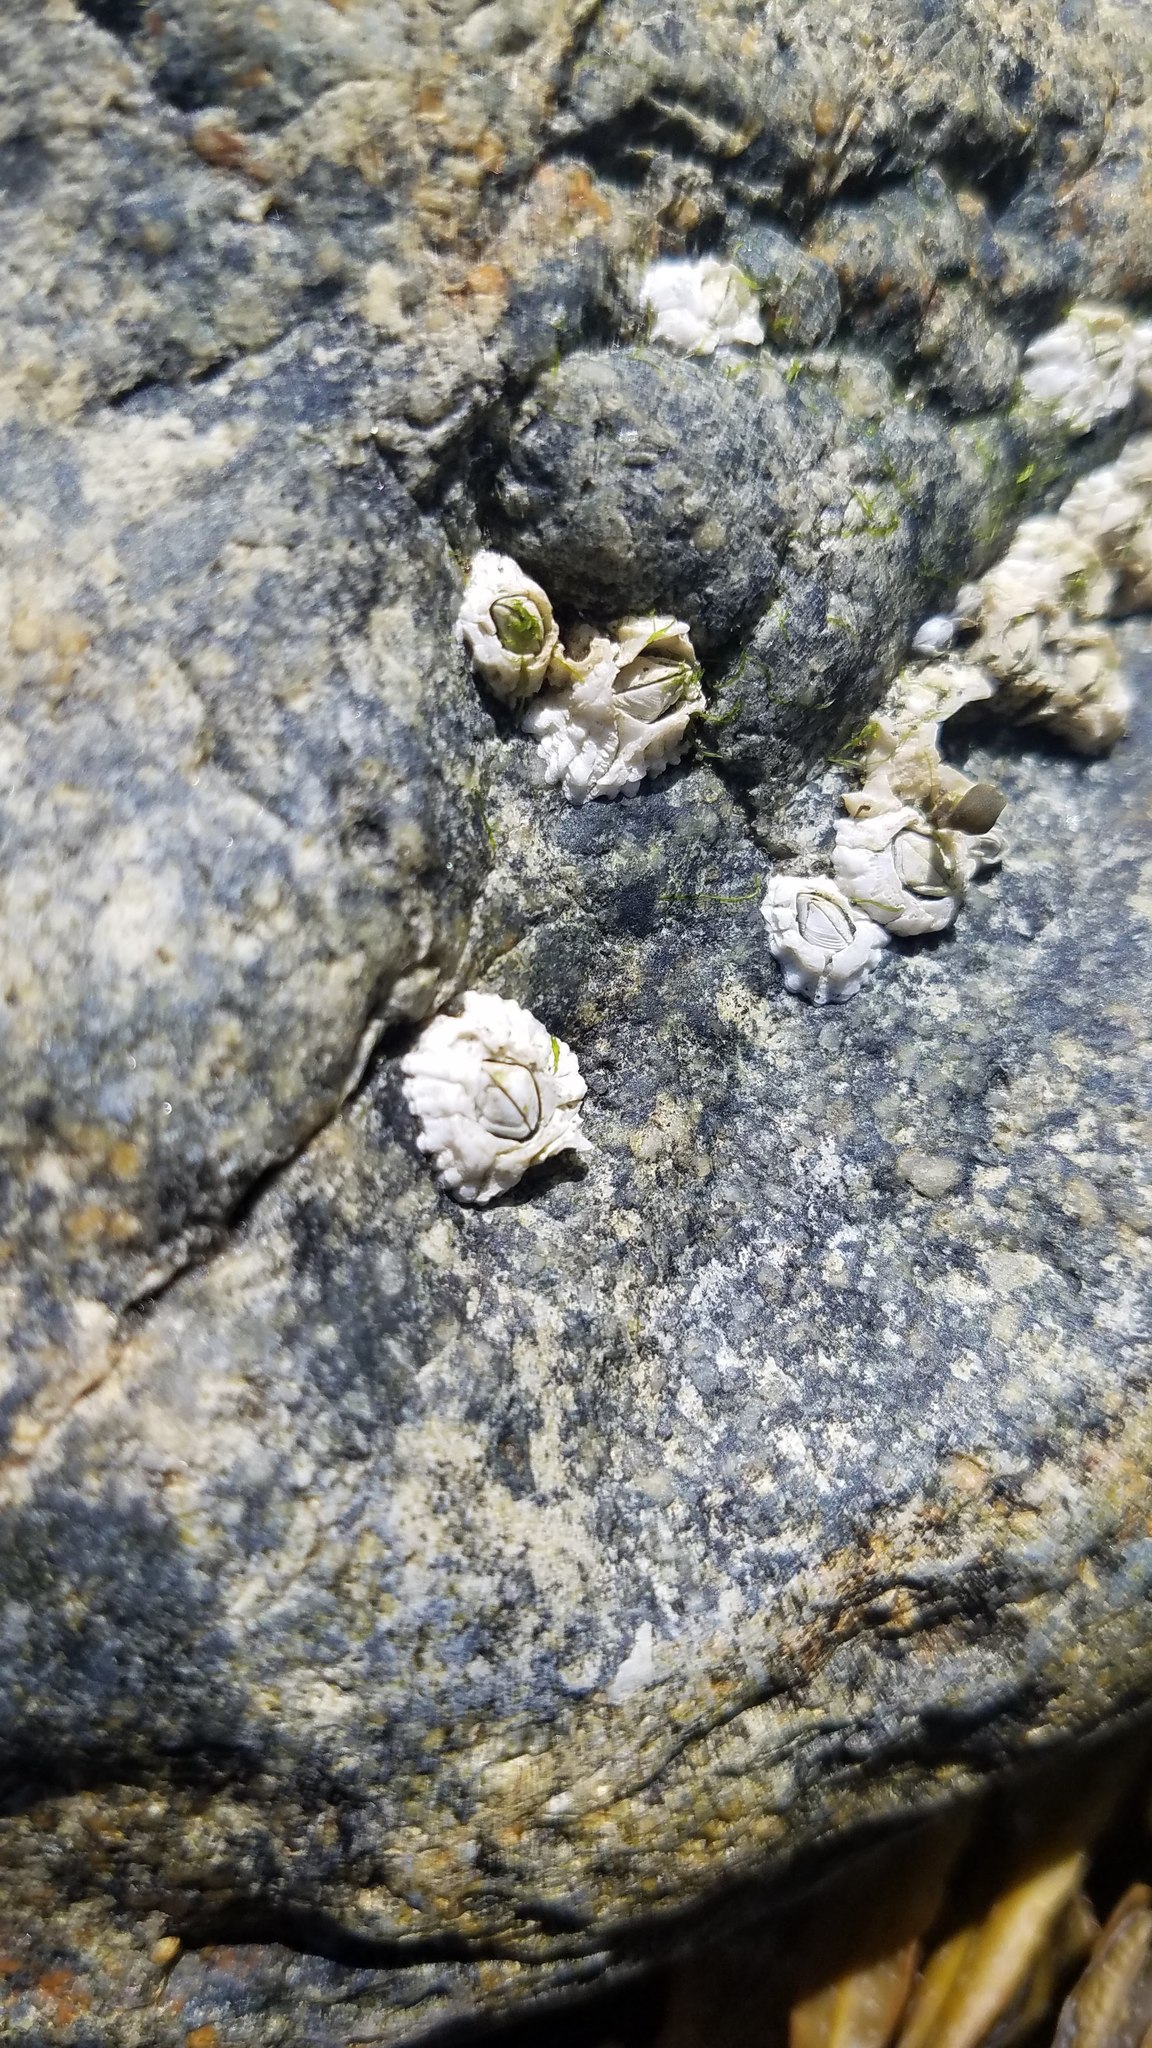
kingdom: Animalia
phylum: Arthropoda
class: Maxillopoda
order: Sessilia
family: Archaeobalanidae
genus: Semibalanus
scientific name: Semibalanus balanoides
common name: Acorn barnacle
